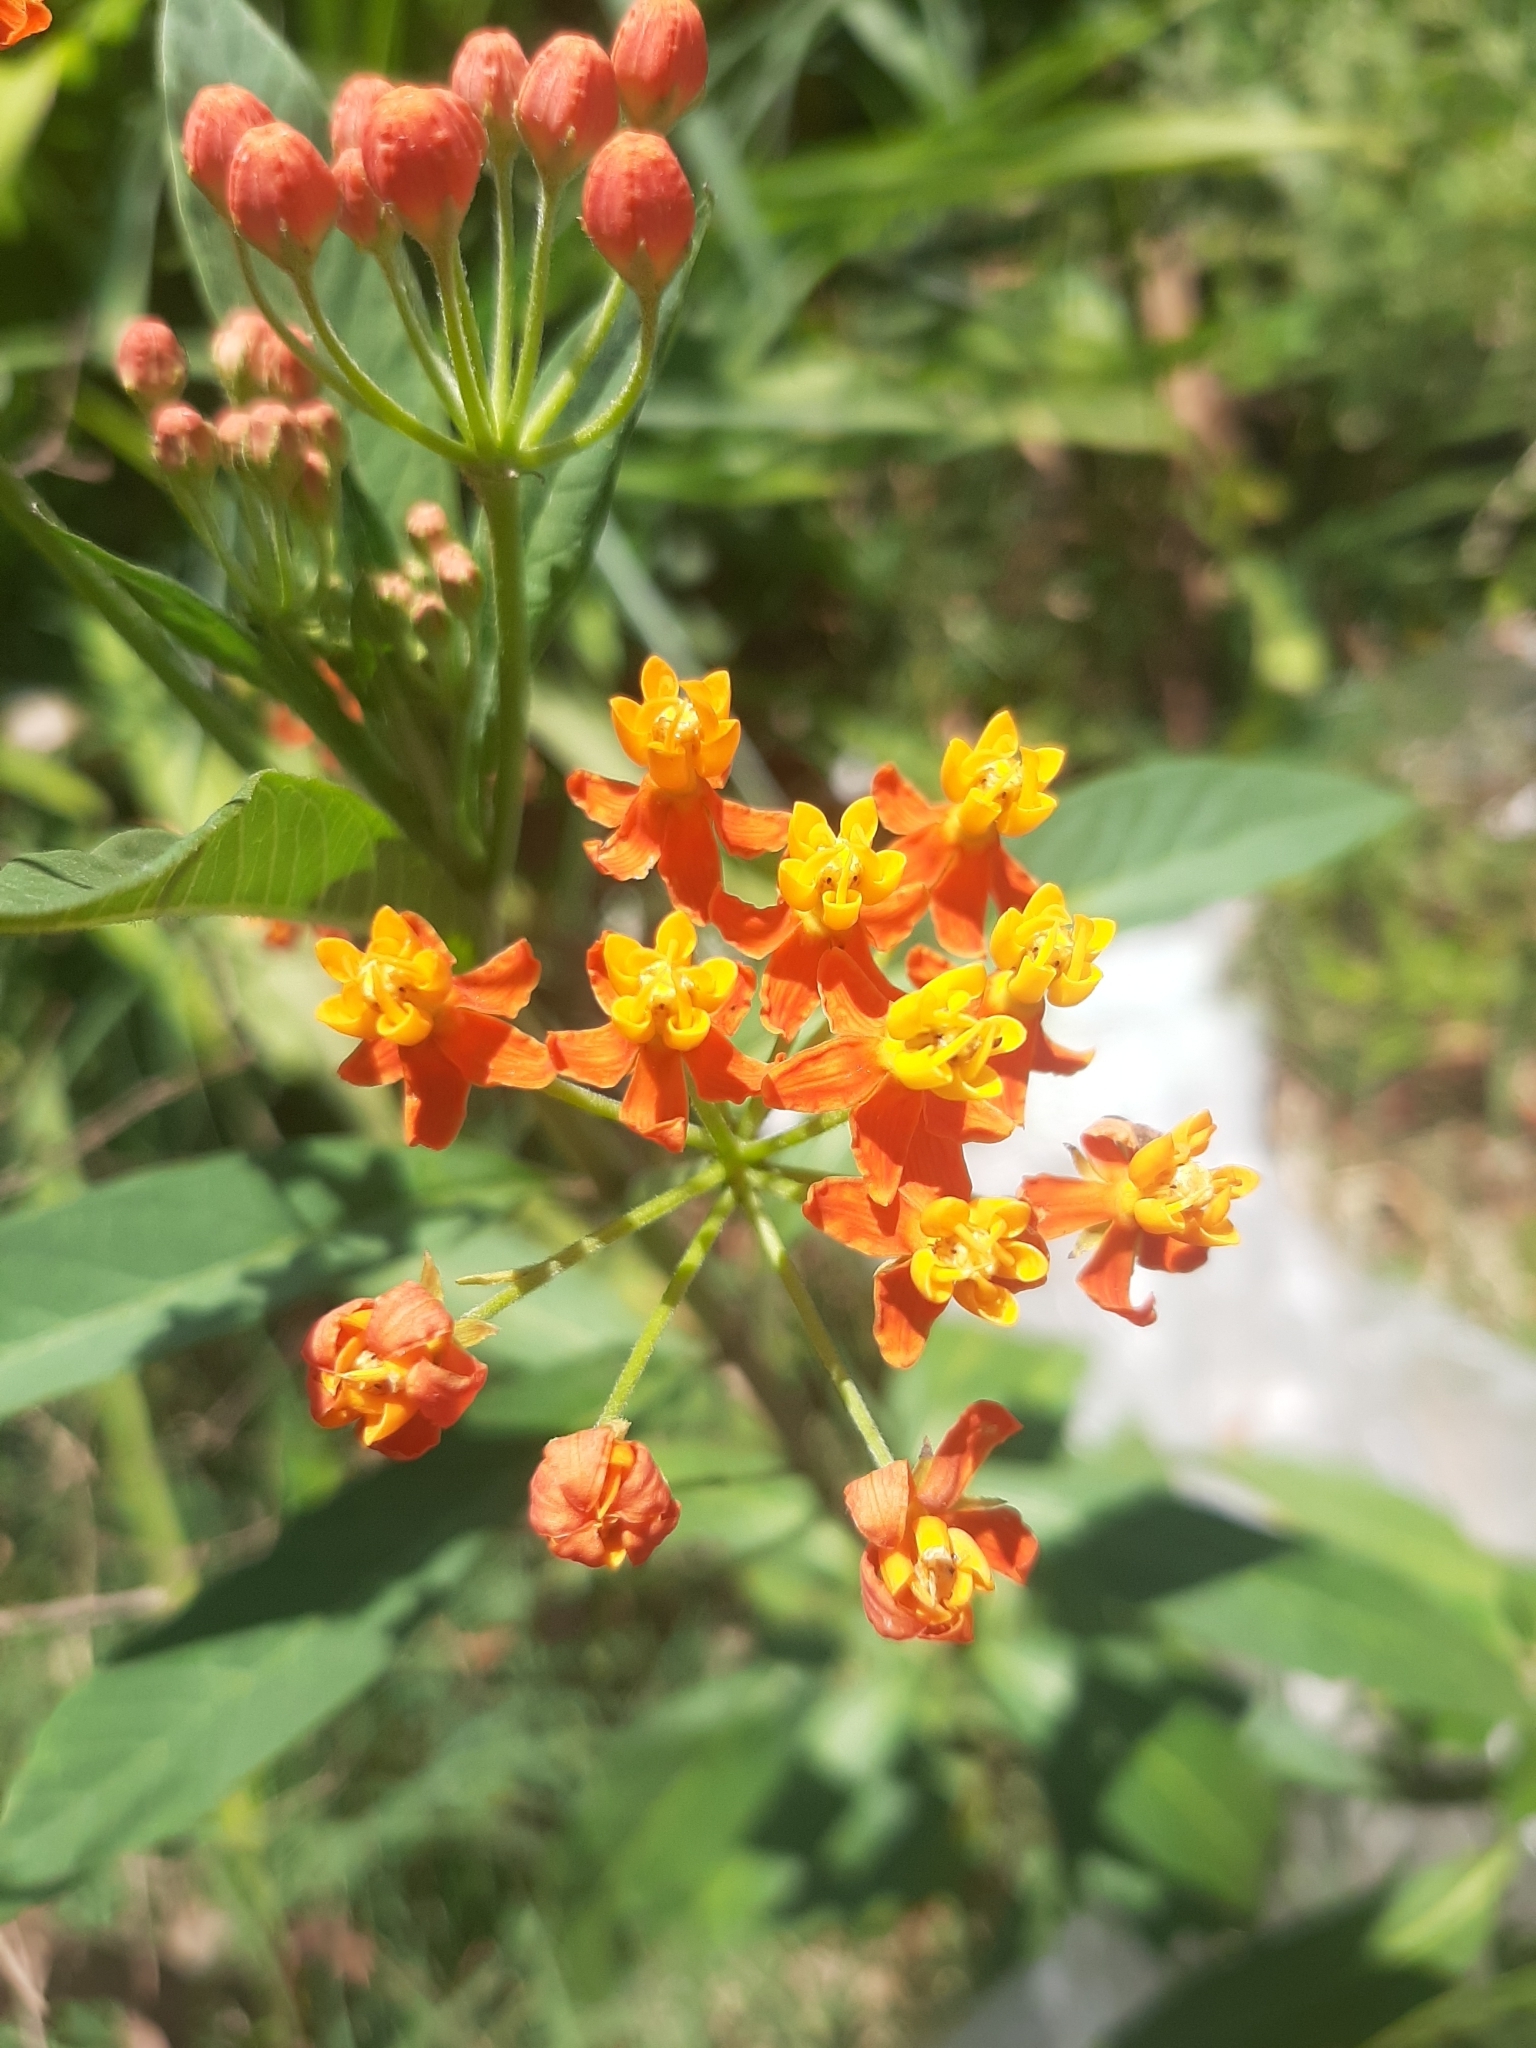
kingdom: Plantae
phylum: Tracheophyta
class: Magnoliopsida
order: Gentianales
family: Apocynaceae
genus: Asclepias
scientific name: Asclepias curassavica
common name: Bloodflower
